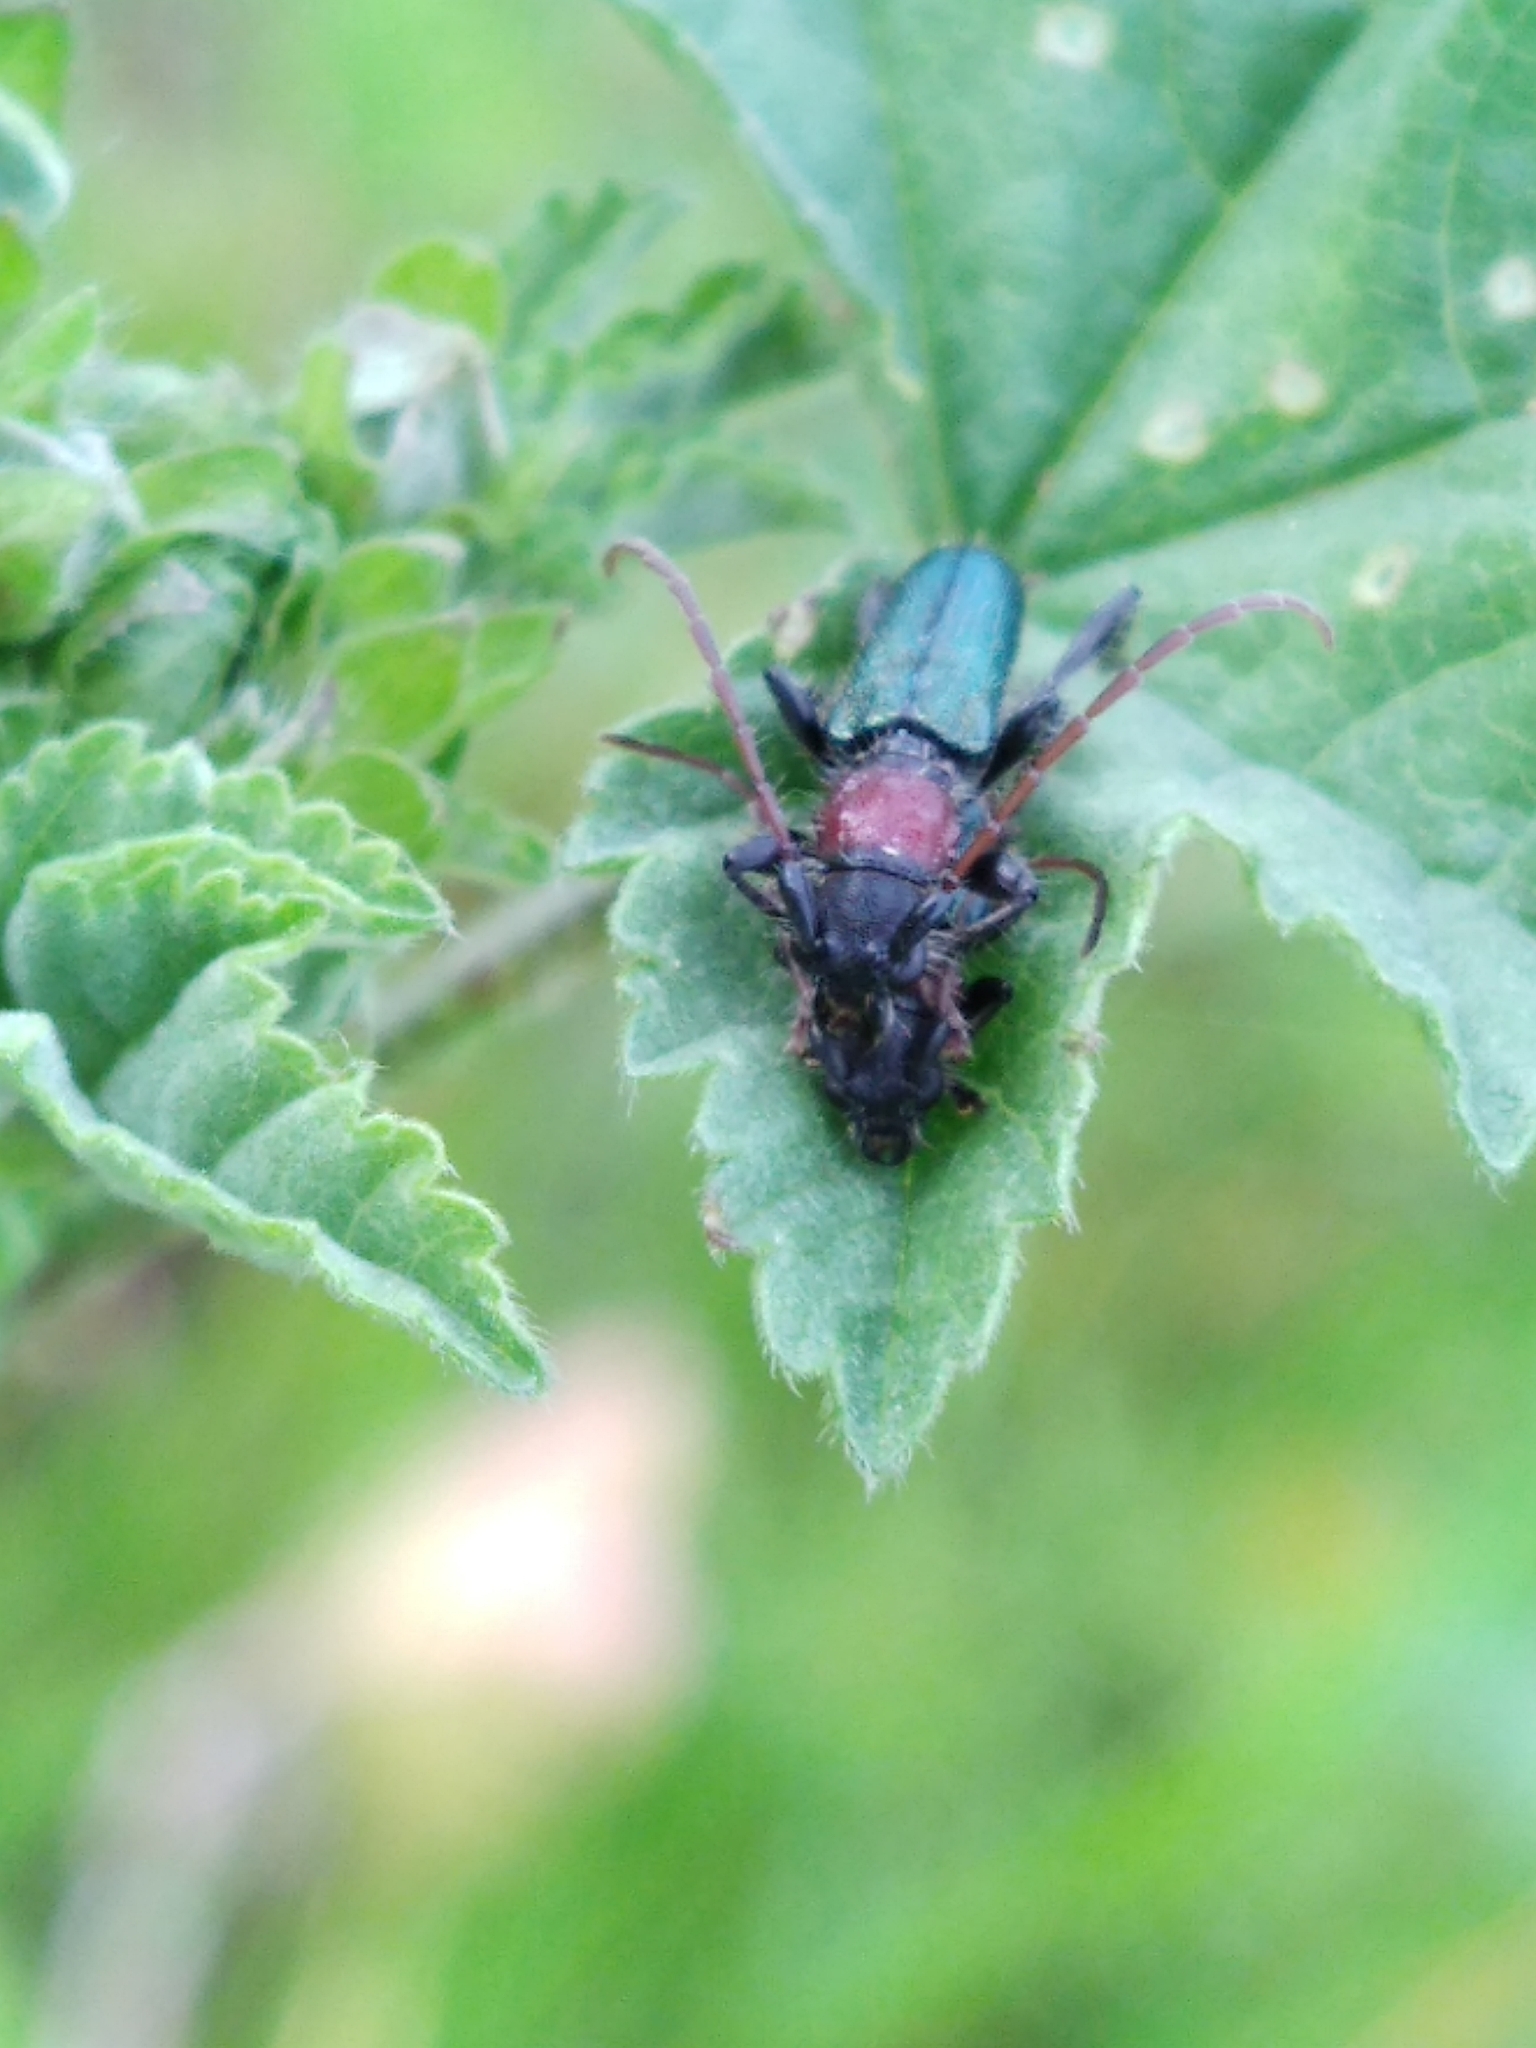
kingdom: Animalia
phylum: Arthropoda
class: Insecta
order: Coleoptera
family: Cerambycidae
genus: Certallum
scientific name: Certallum ebulinum
